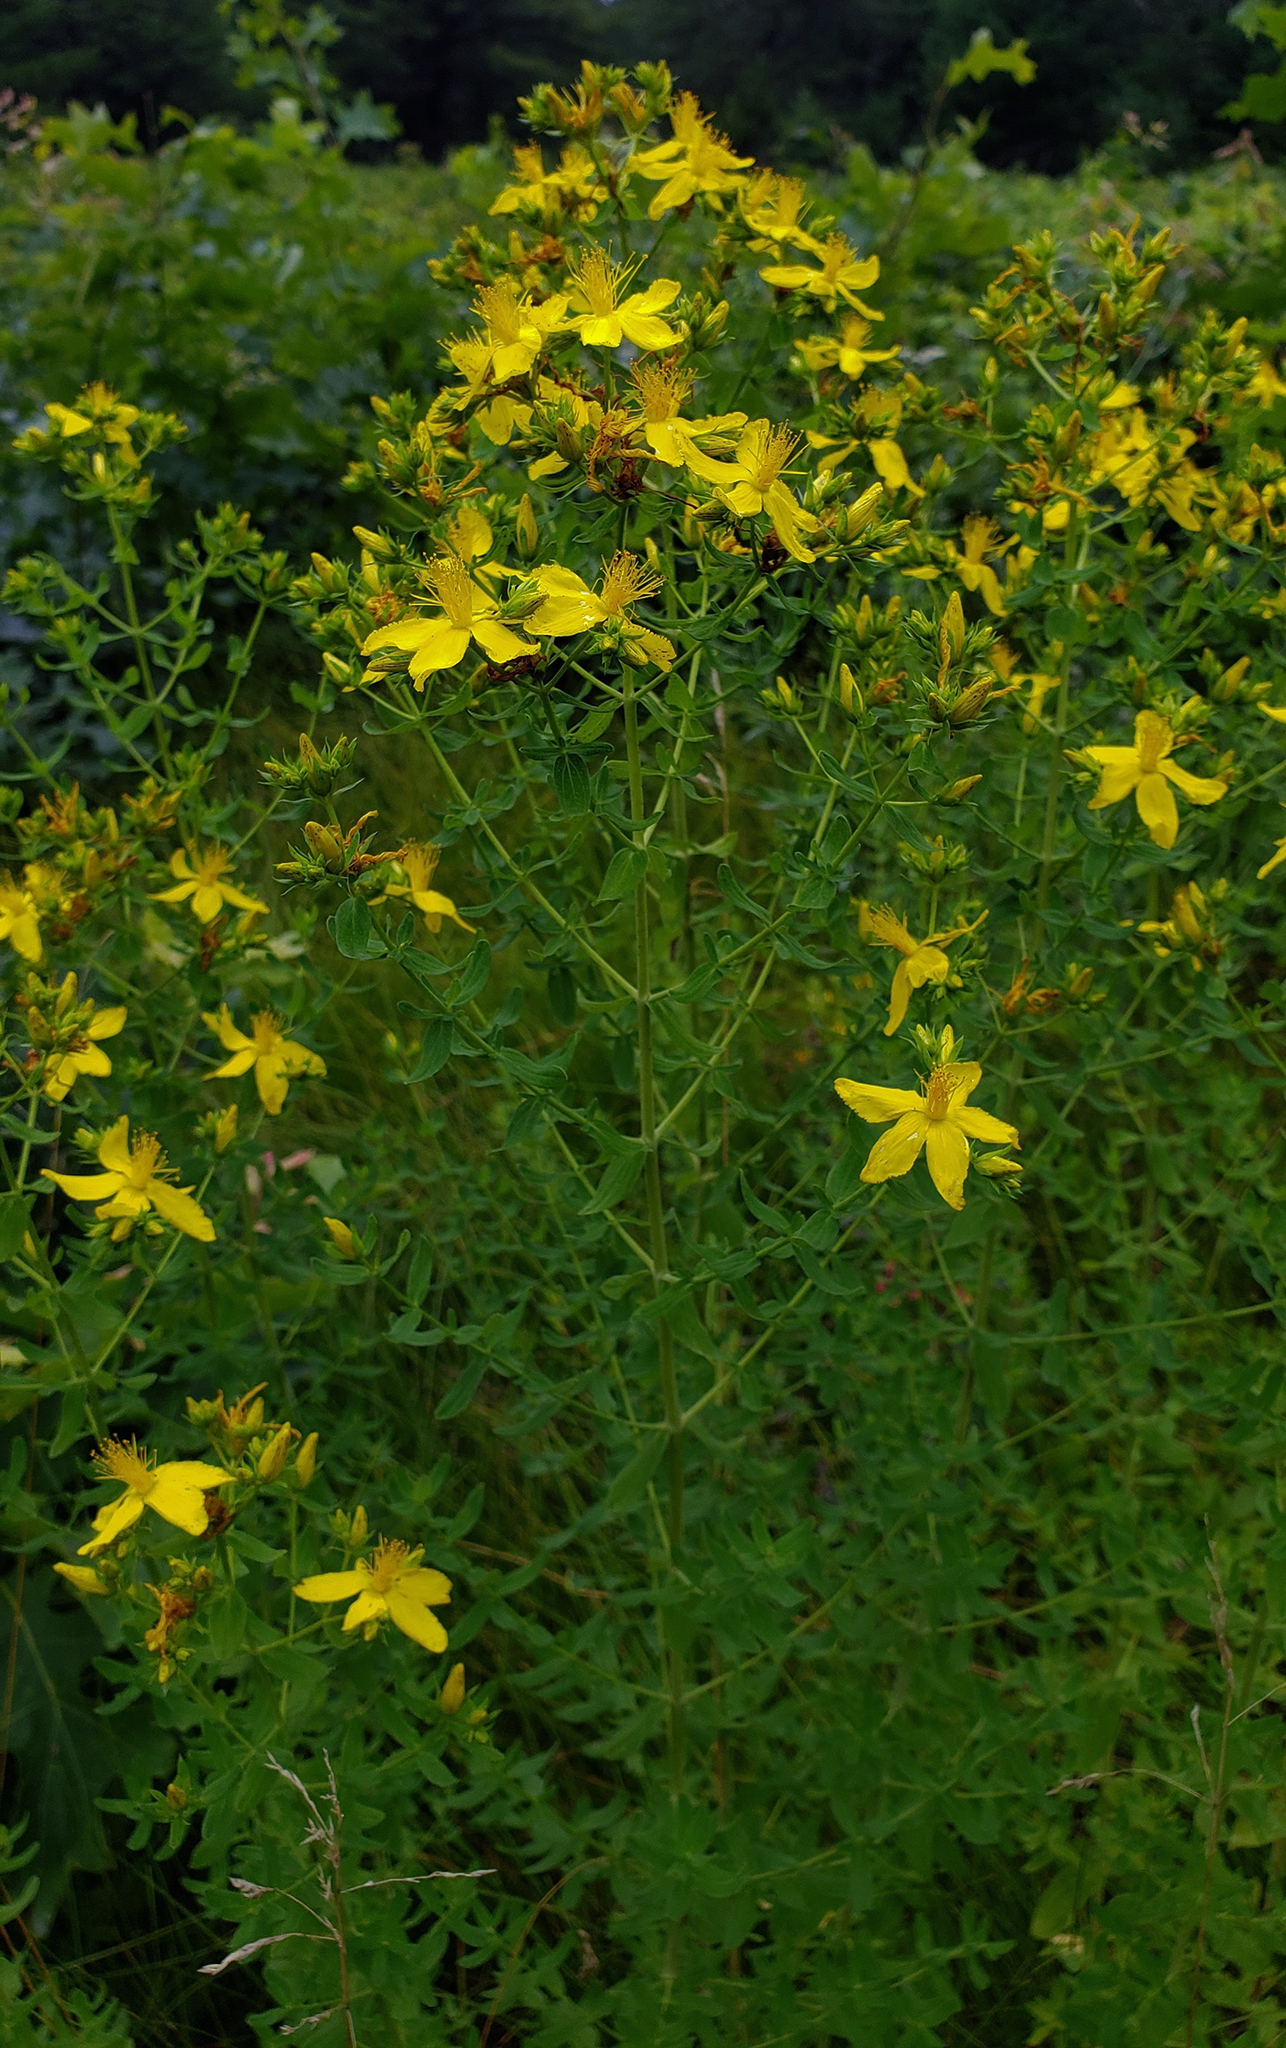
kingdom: Plantae
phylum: Tracheophyta
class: Magnoliopsida
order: Malpighiales
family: Hypericaceae
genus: Hypericum
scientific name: Hypericum perforatum
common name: Common st. johnswort
